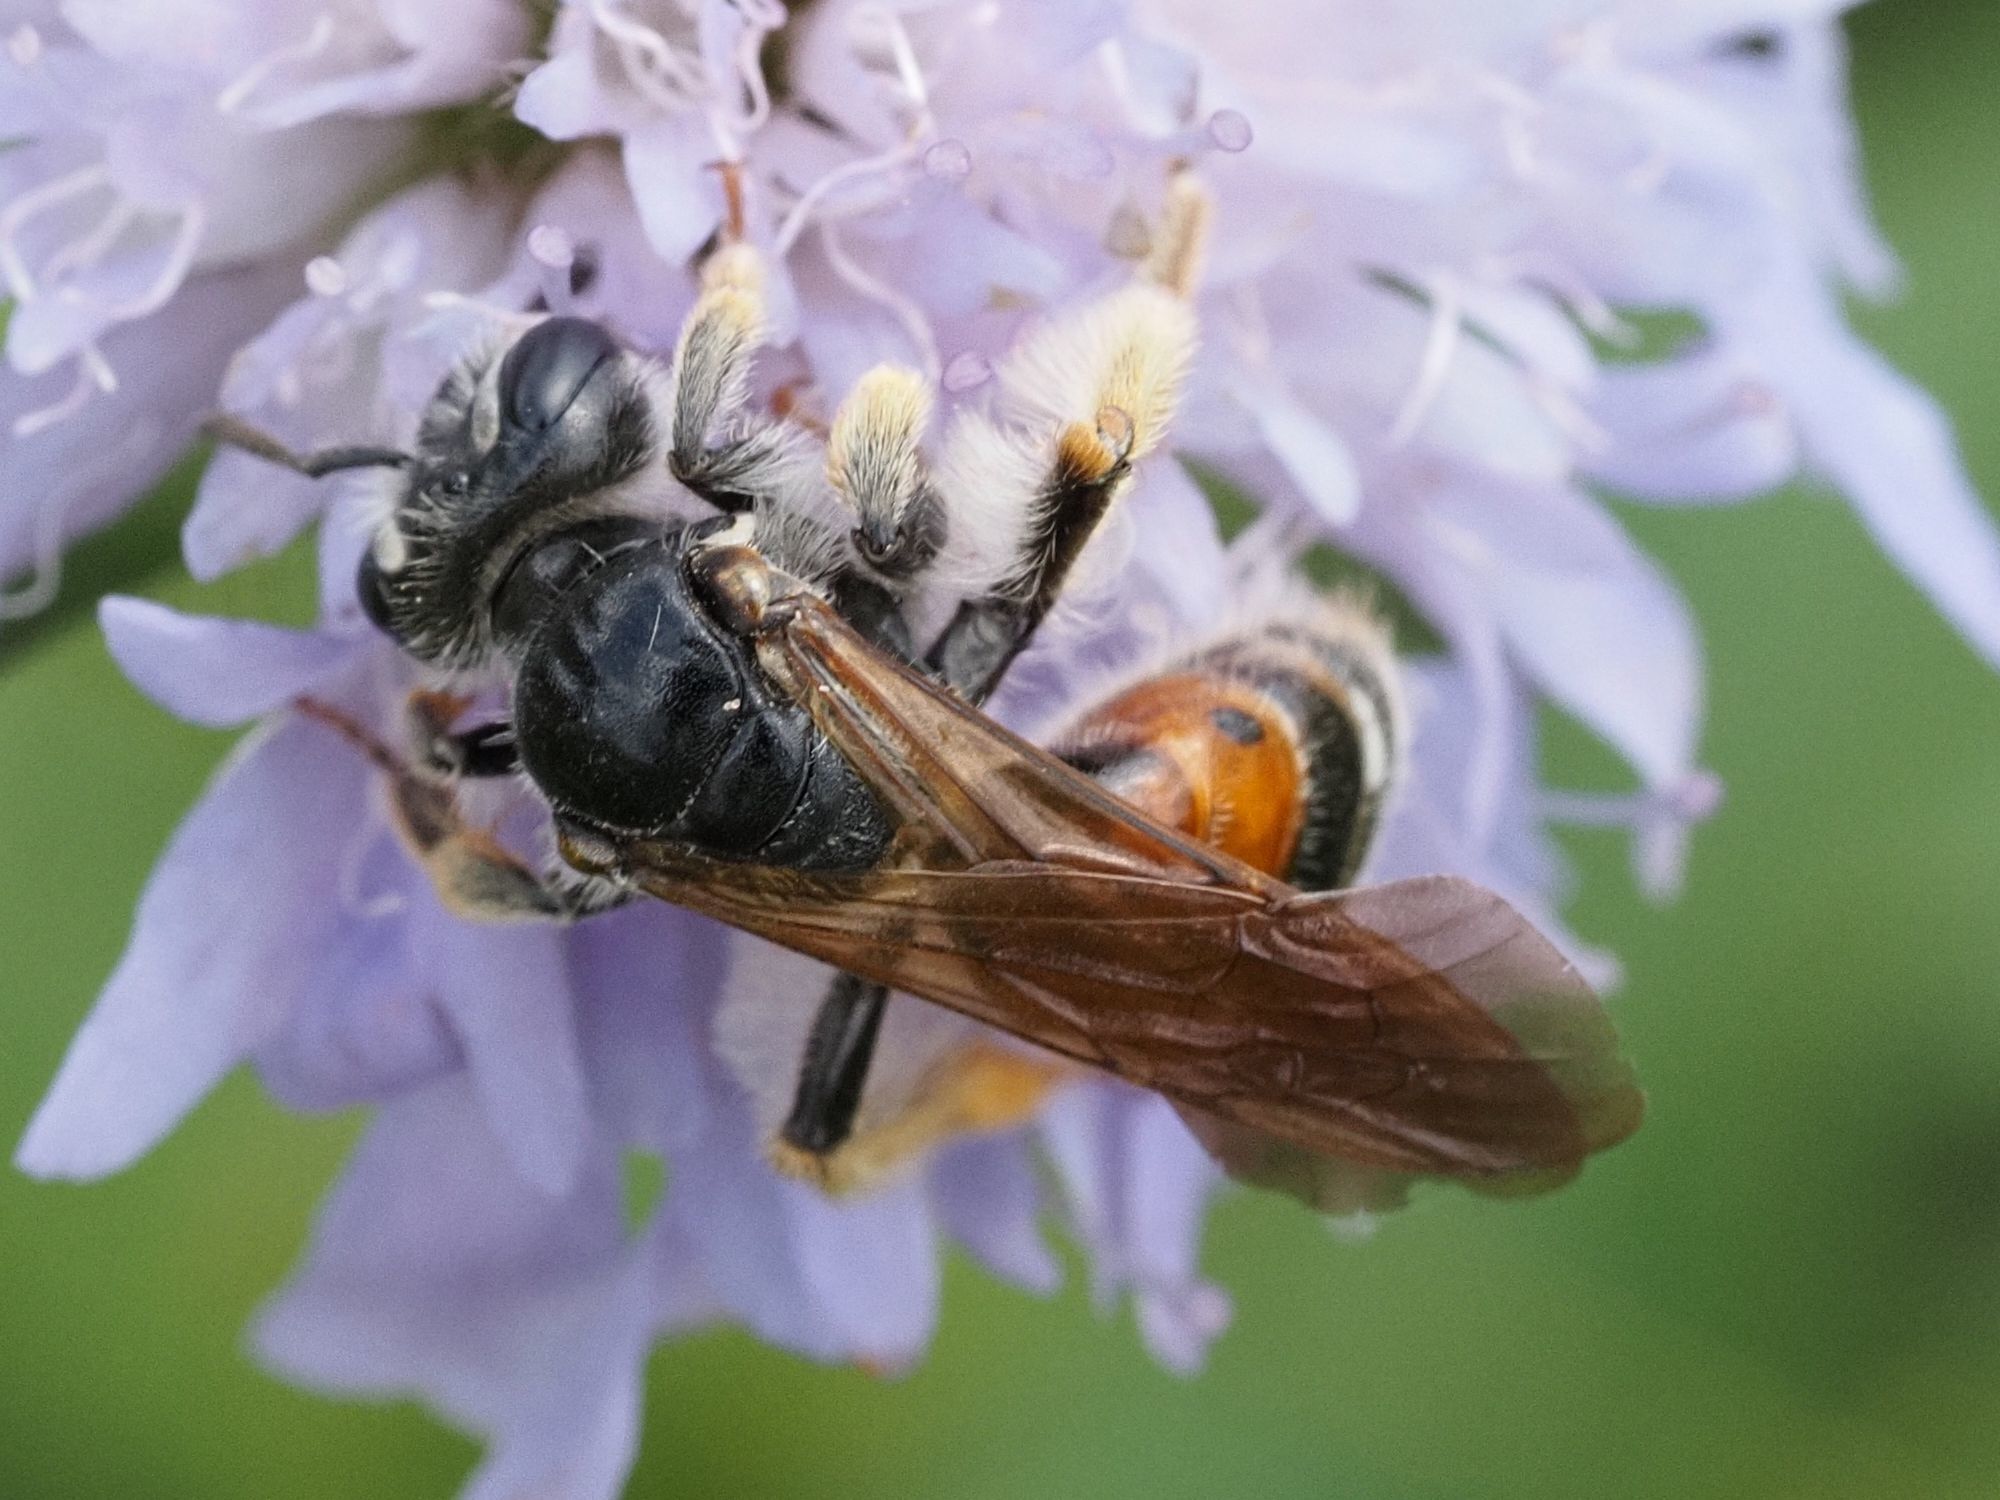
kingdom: Animalia
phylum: Arthropoda
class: Insecta
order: Hymenoptera
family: Andrenidae
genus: Andrena
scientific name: Andrena hattorfiana
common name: Large scabious mining bee
